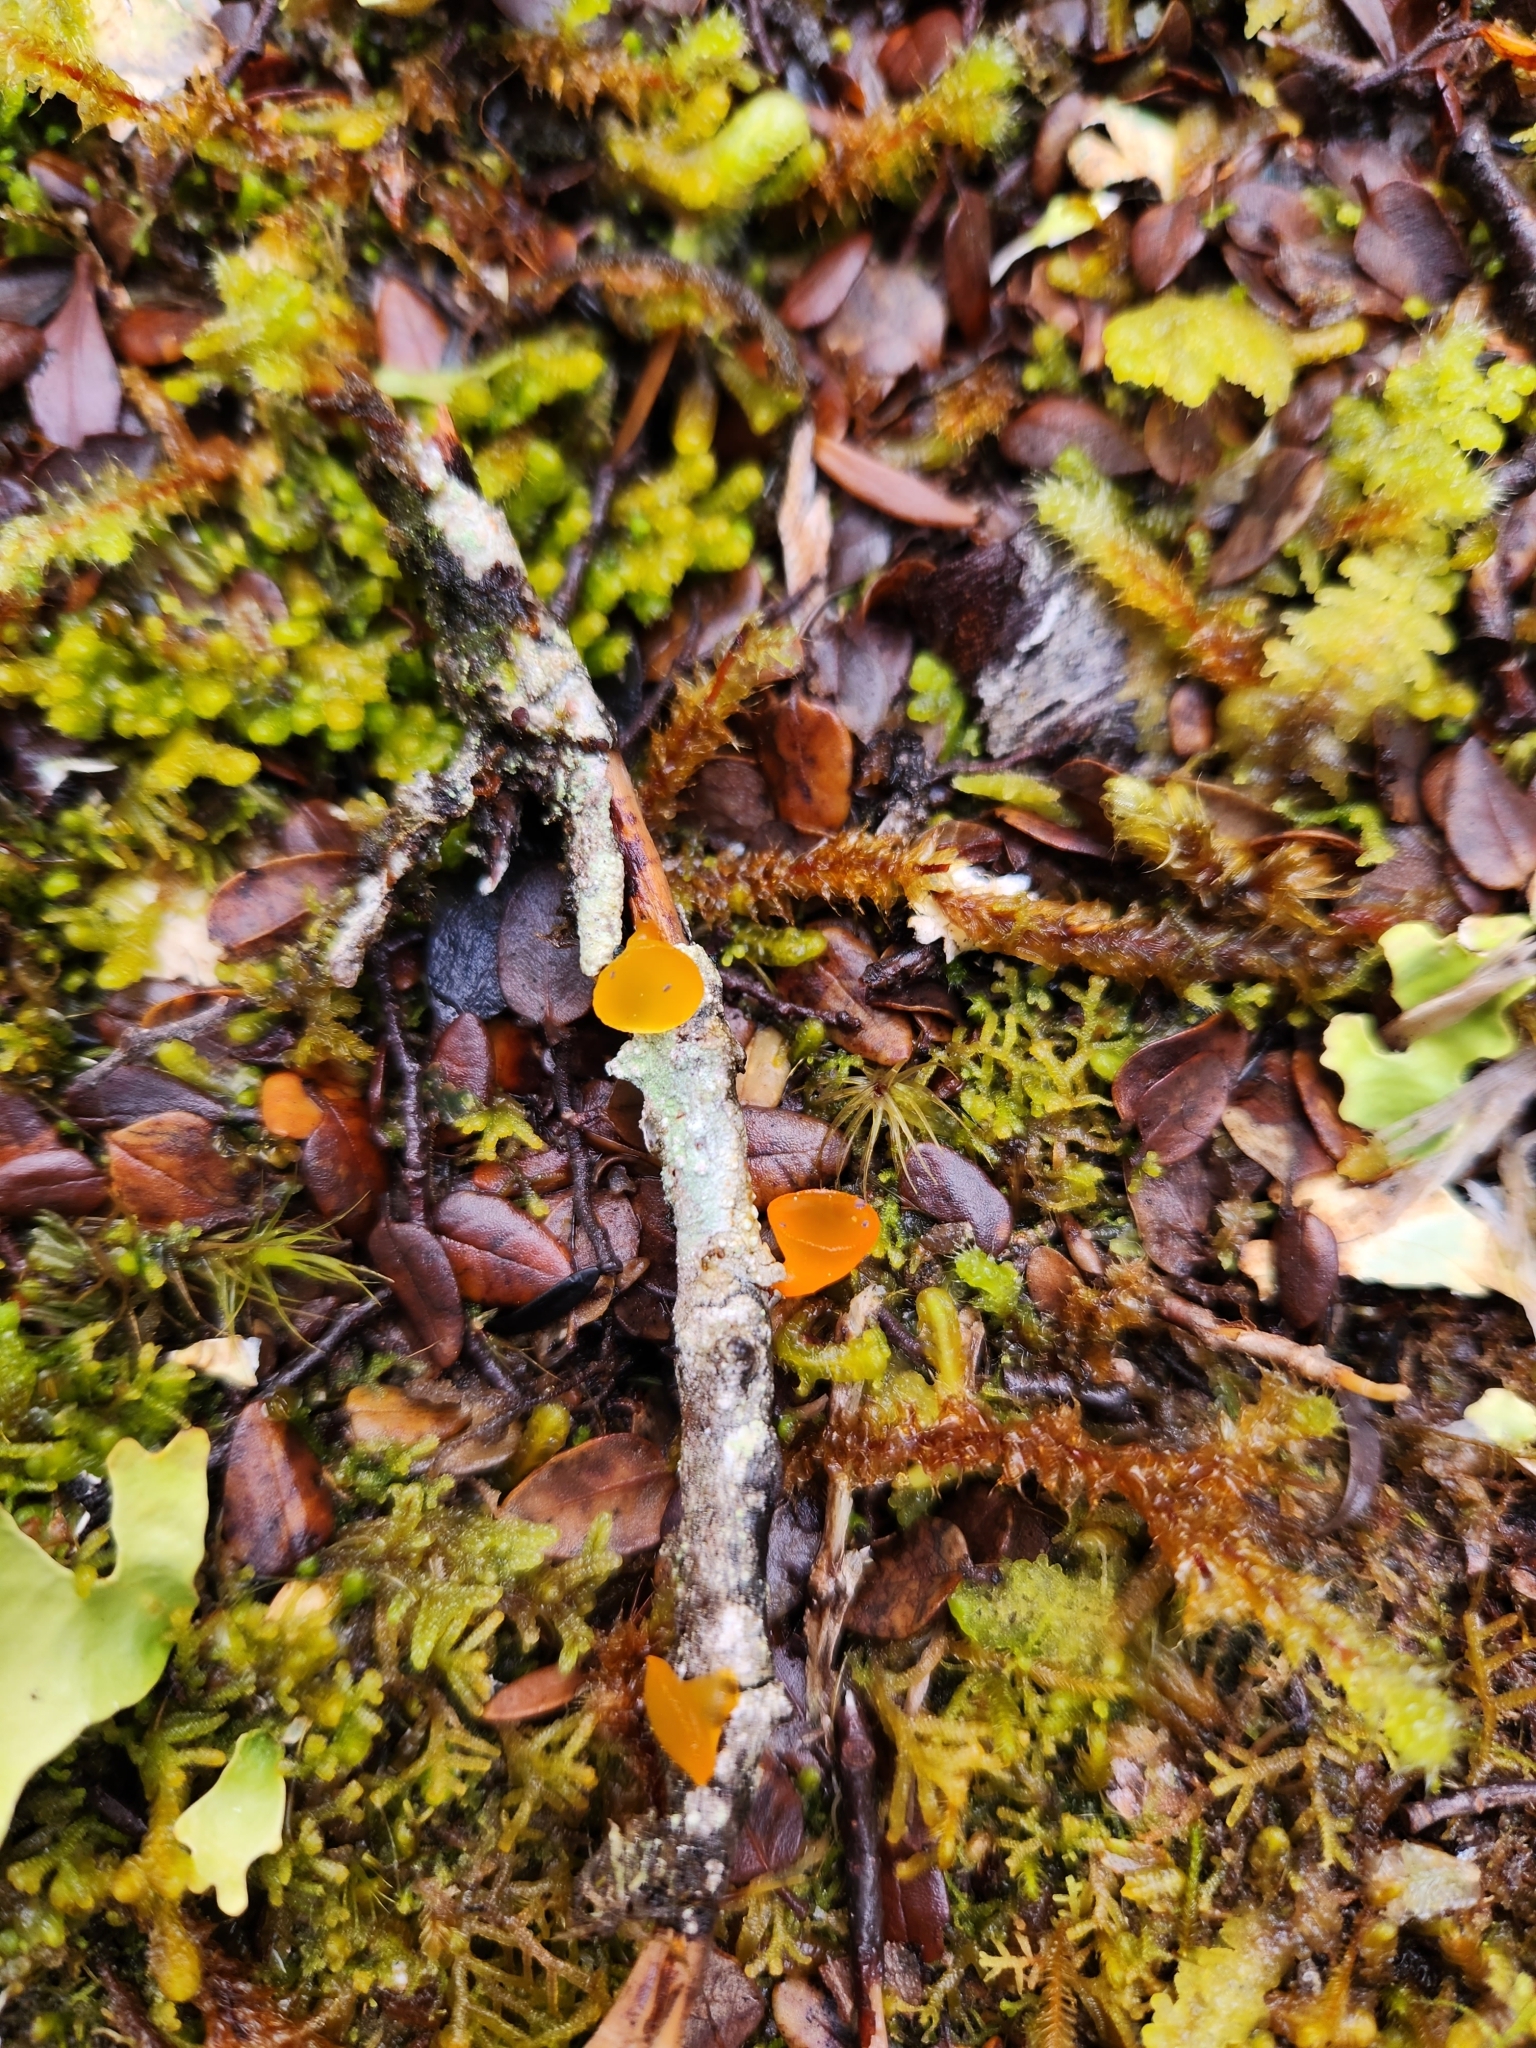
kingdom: Fungi
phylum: Basidiomycota
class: Dacrymycetes
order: Dacrymycetales
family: Dacrymycetaceae
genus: Heterotextus
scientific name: Heterotextus miltinus
